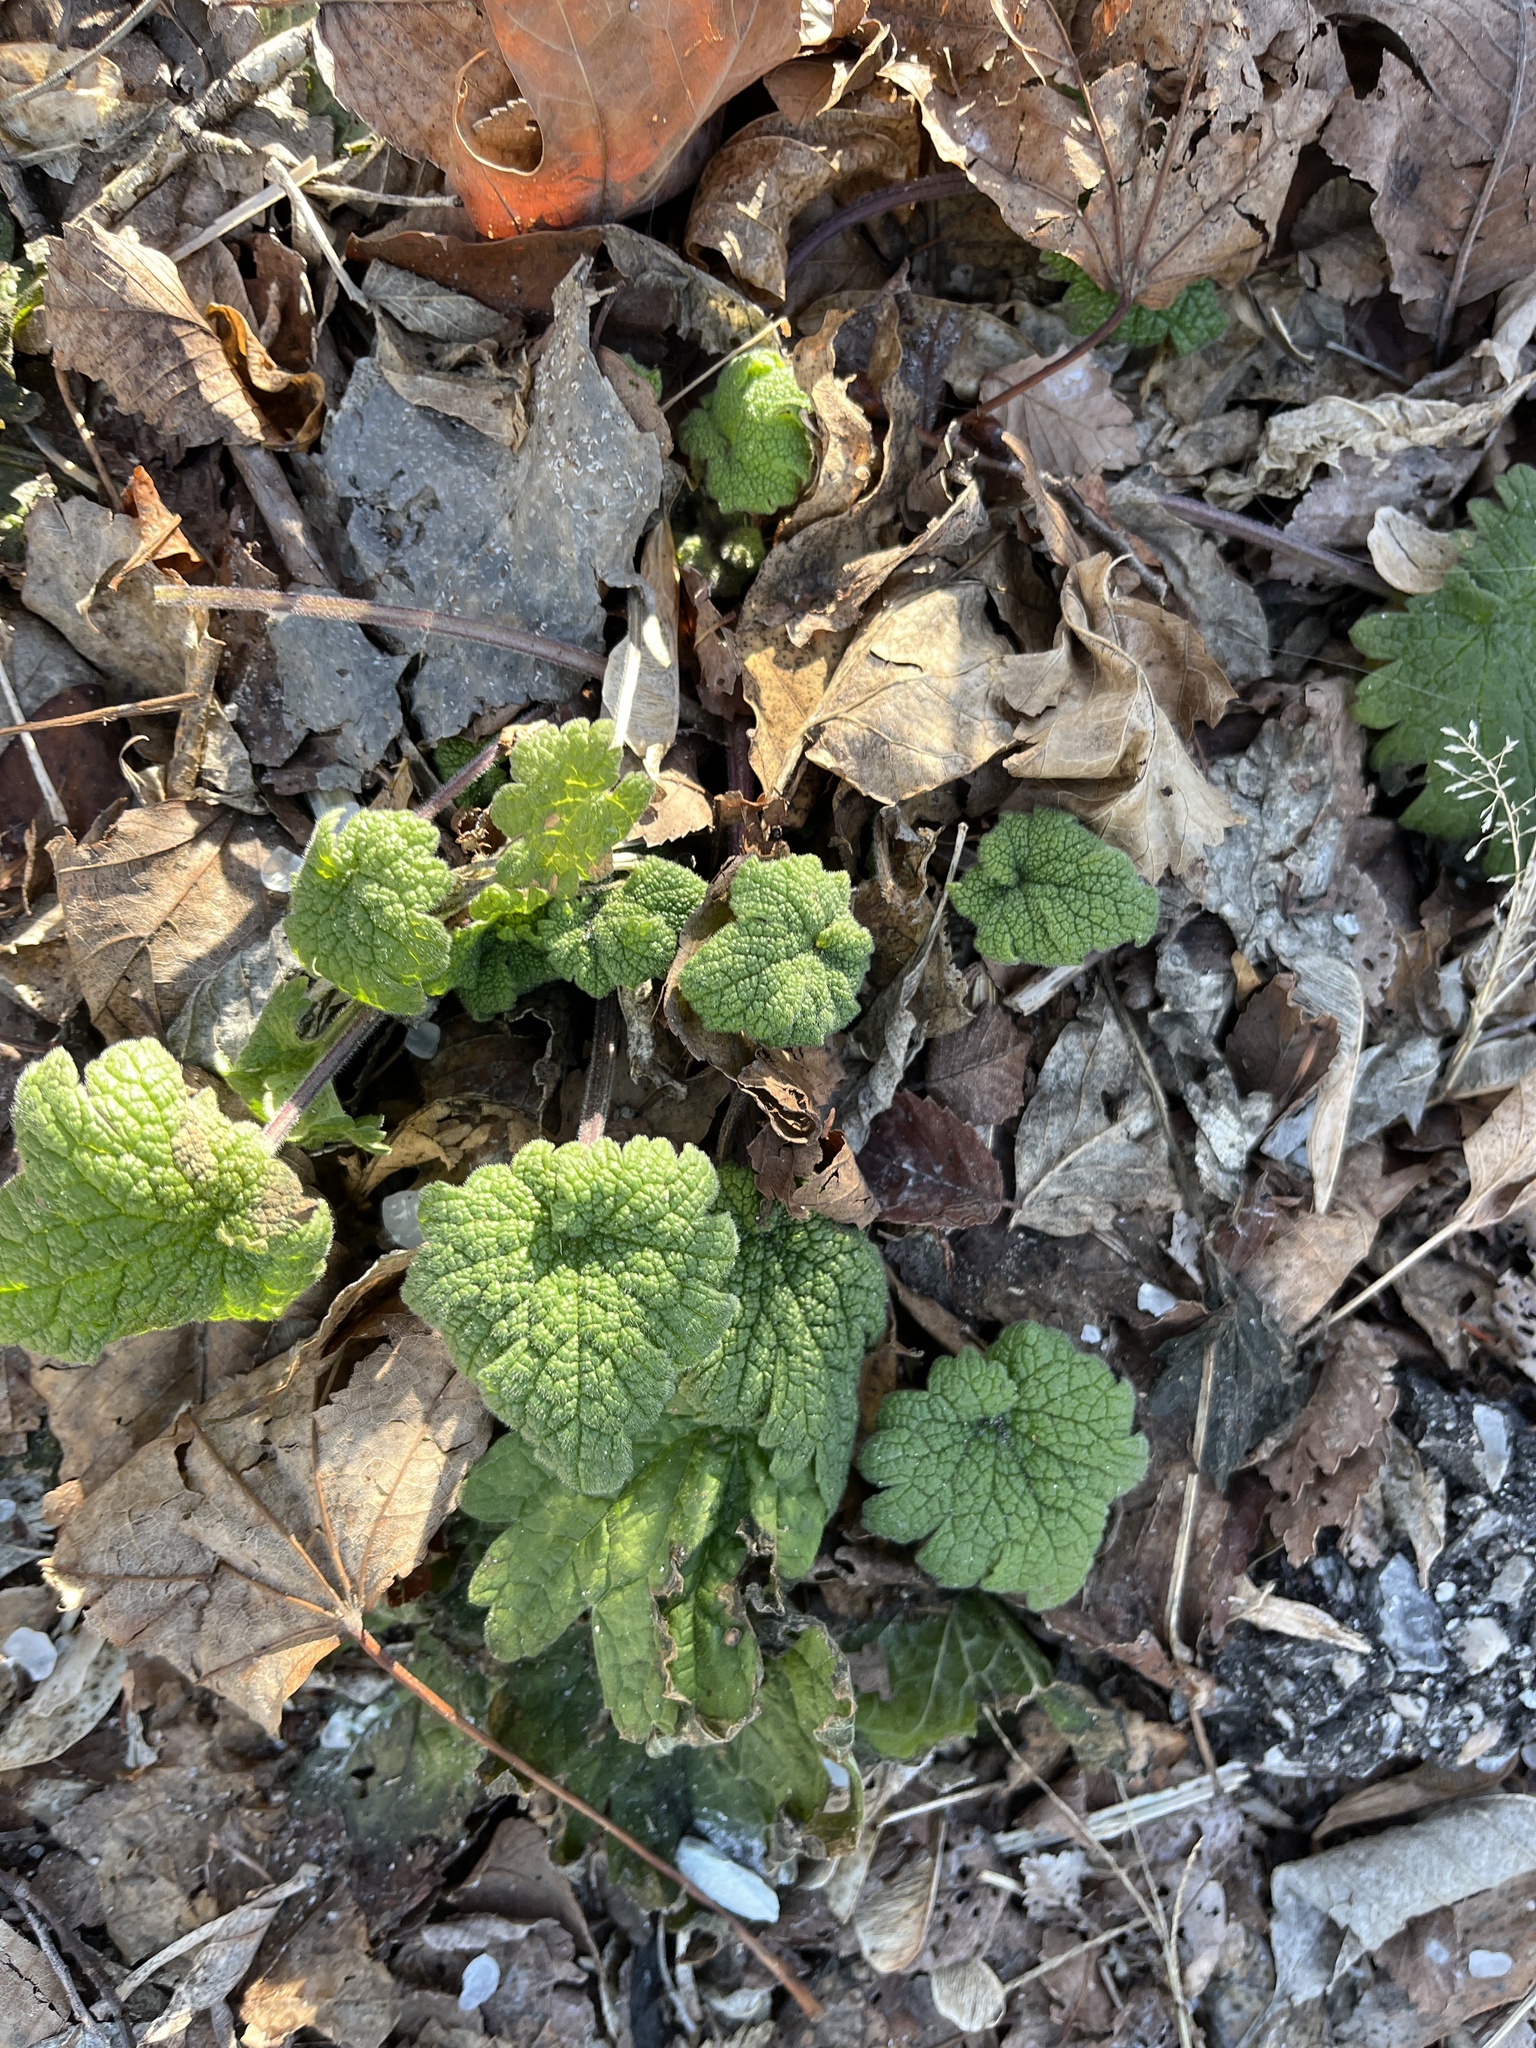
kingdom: Plantae
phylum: Tracheophyta
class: Magnoliopsida
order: Lamiales
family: Lamiaceae
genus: Leonurus
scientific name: Leonurus cardiaca
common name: Motherwort
